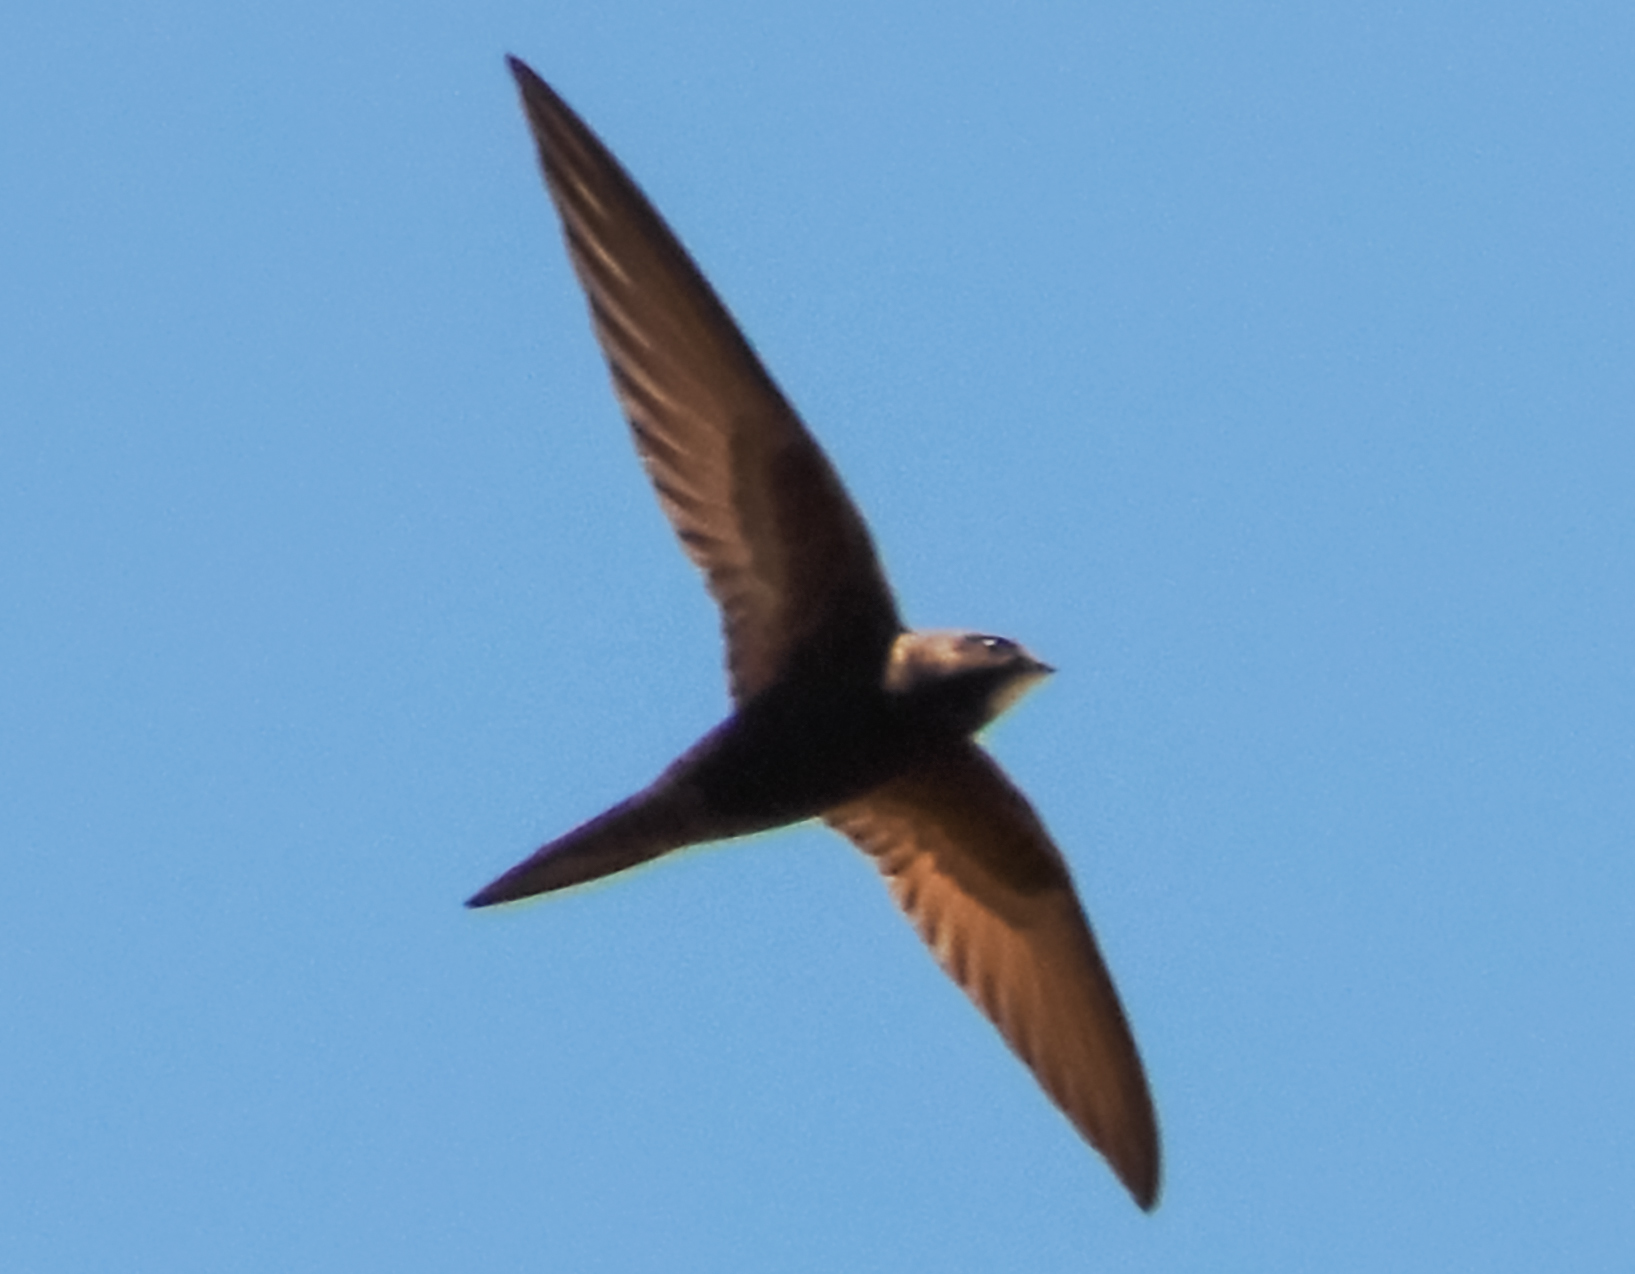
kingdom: Animalia
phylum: Chordata
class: Aves
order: Apodiformes
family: Apodidae
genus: Apus
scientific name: Apus apus
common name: Common swift
